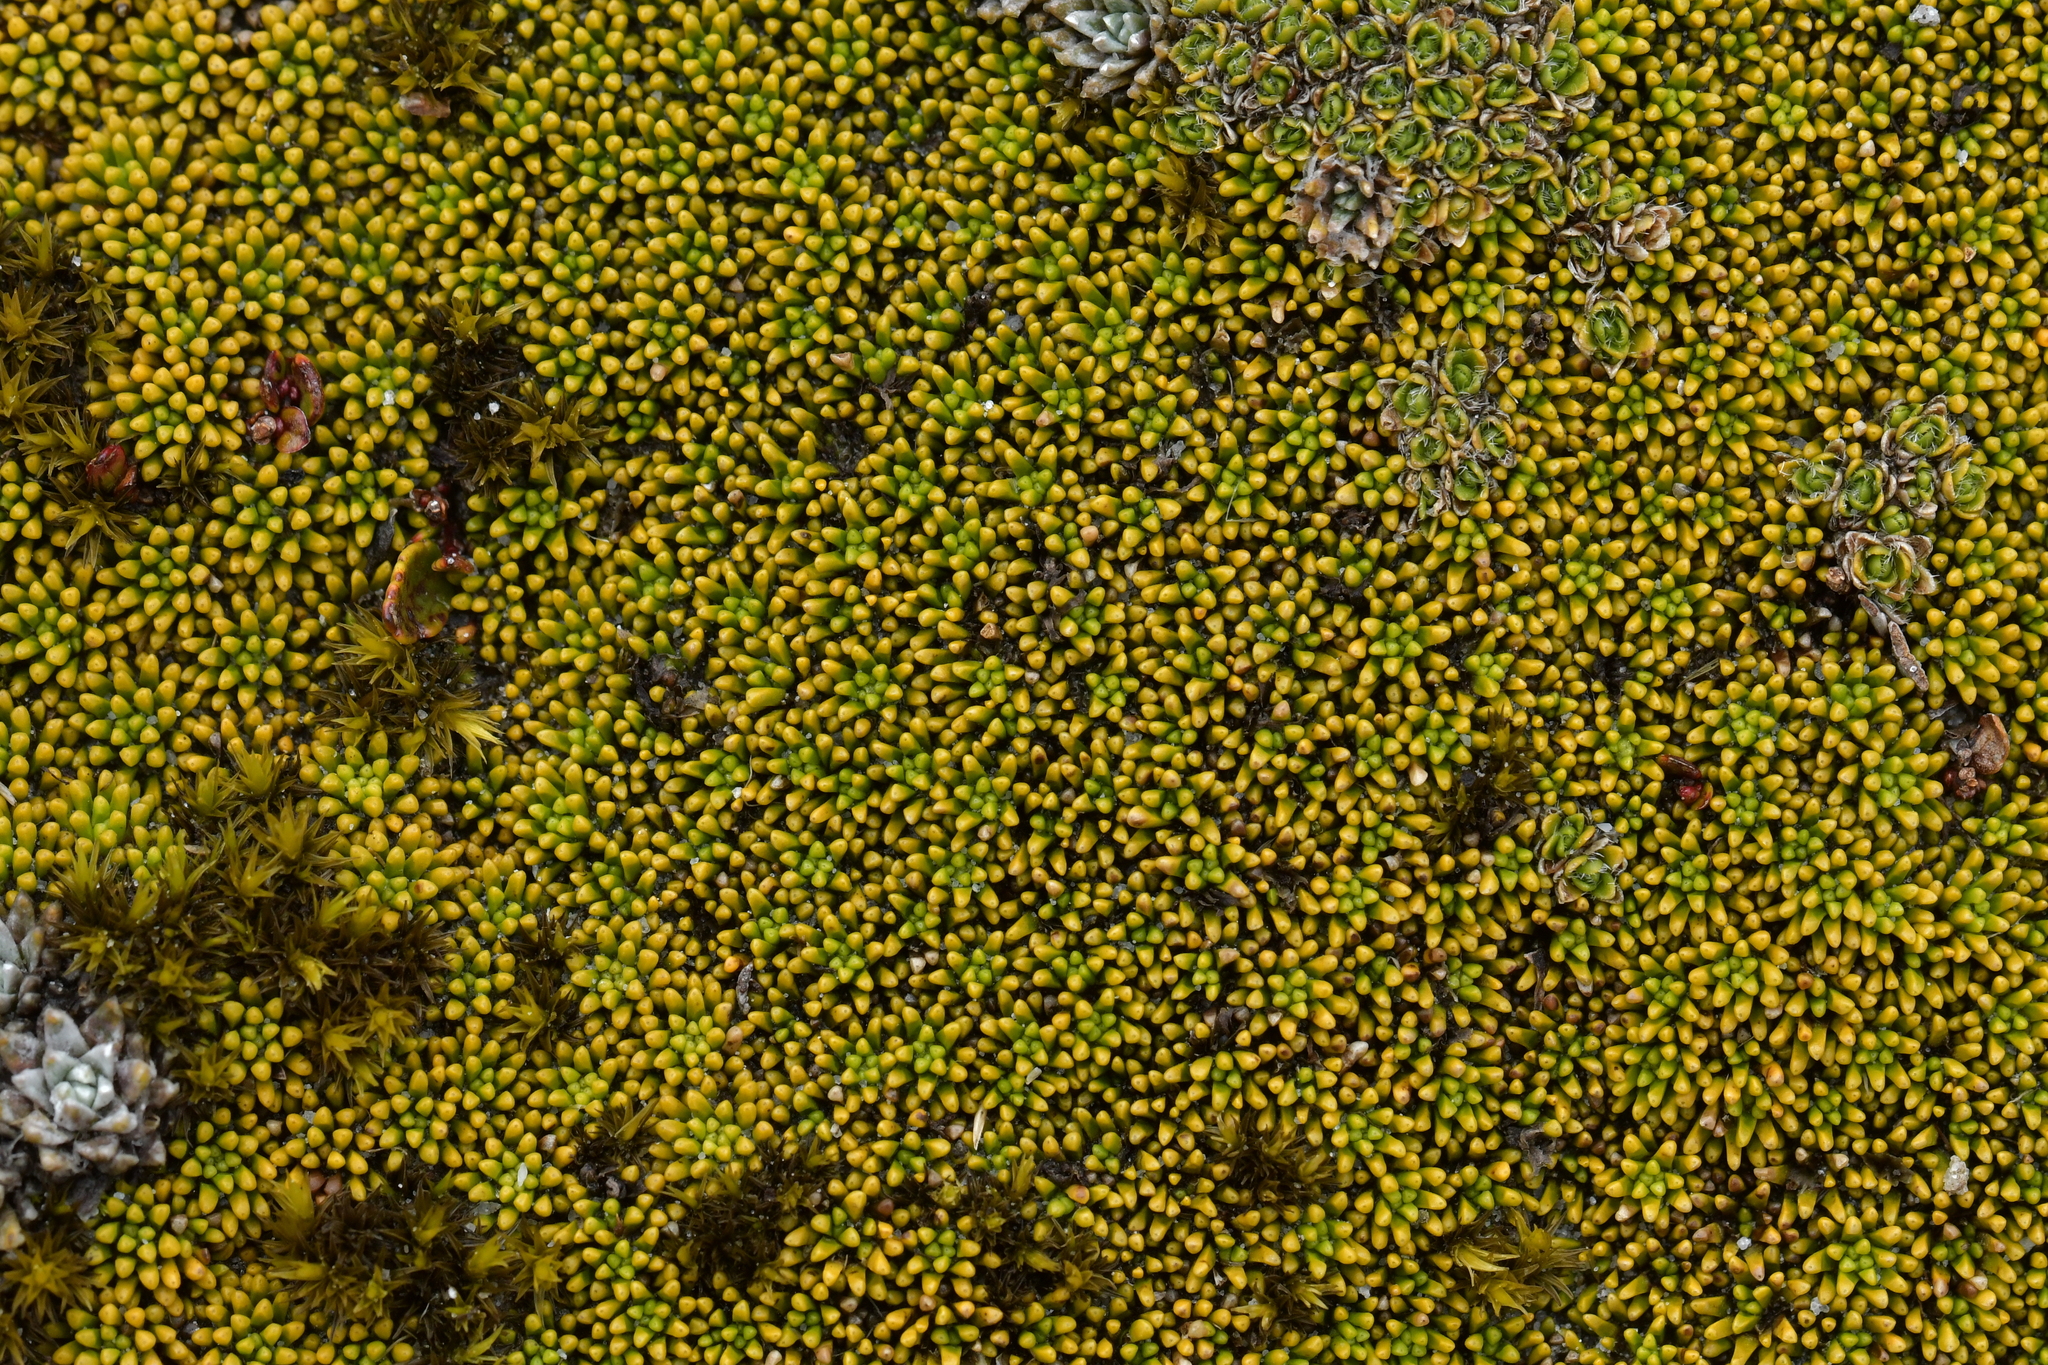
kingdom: Plantae
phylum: Tracheophyta
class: Magnoliopsida
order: Asterales
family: Stylidiaceae
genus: Phyllachne
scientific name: Phyllachne colensoi
